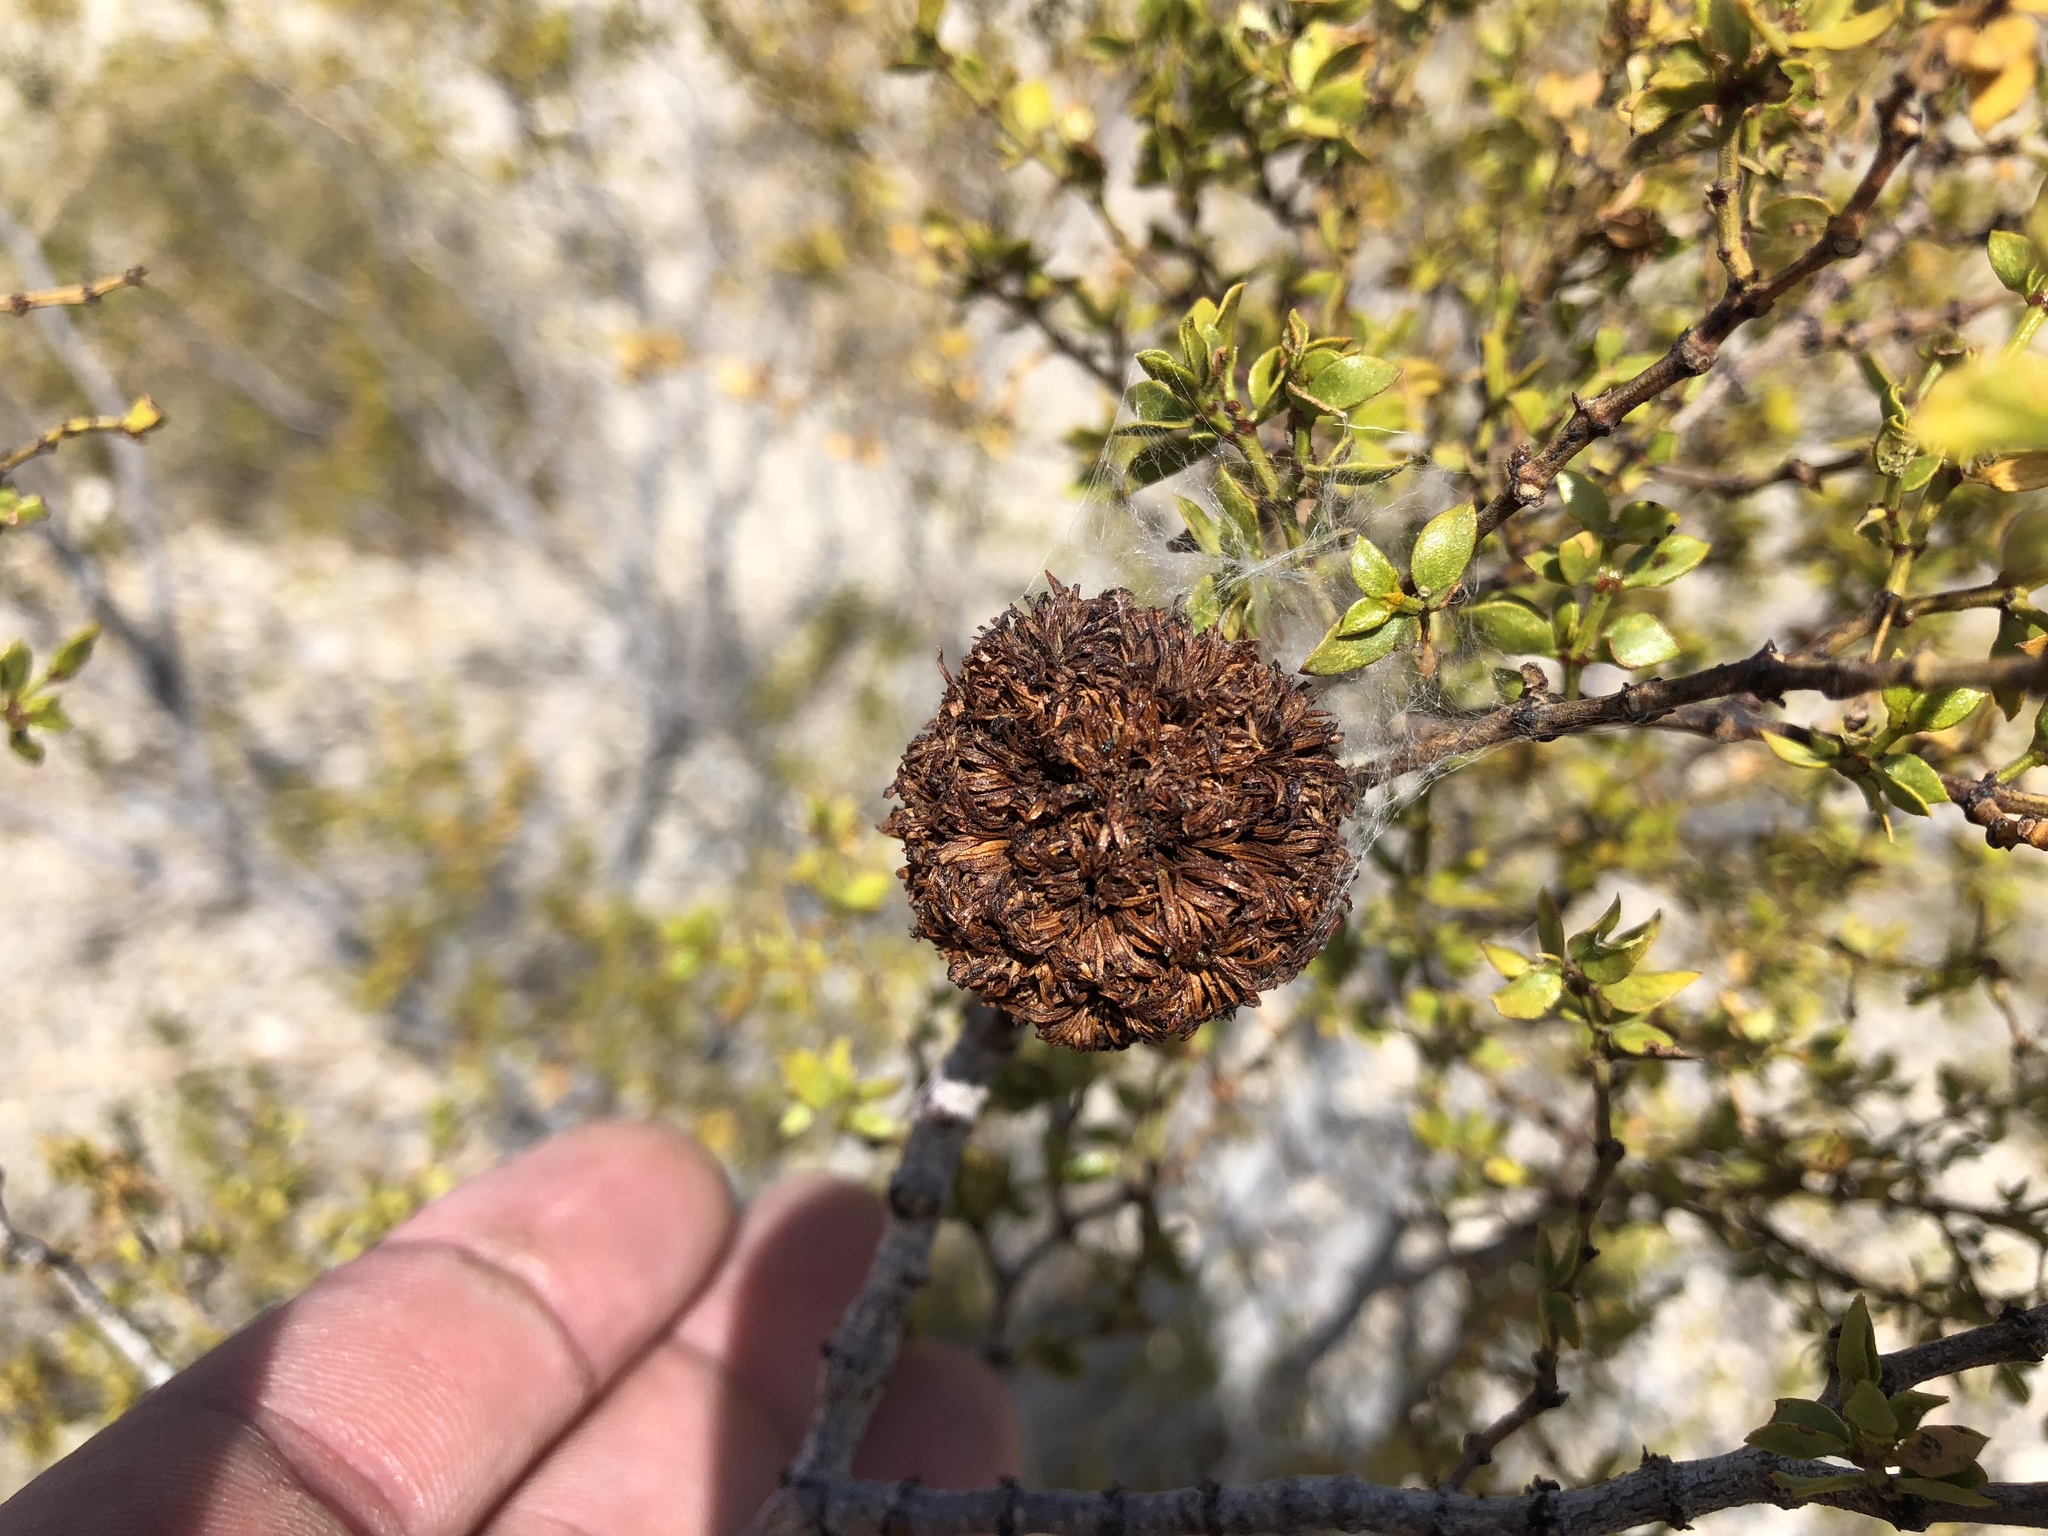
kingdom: Animalia
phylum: Arthropoda
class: Insecta
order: Diptera
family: Cecidomyiidae
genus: Asphondylia
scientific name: Asphondylia auripila
